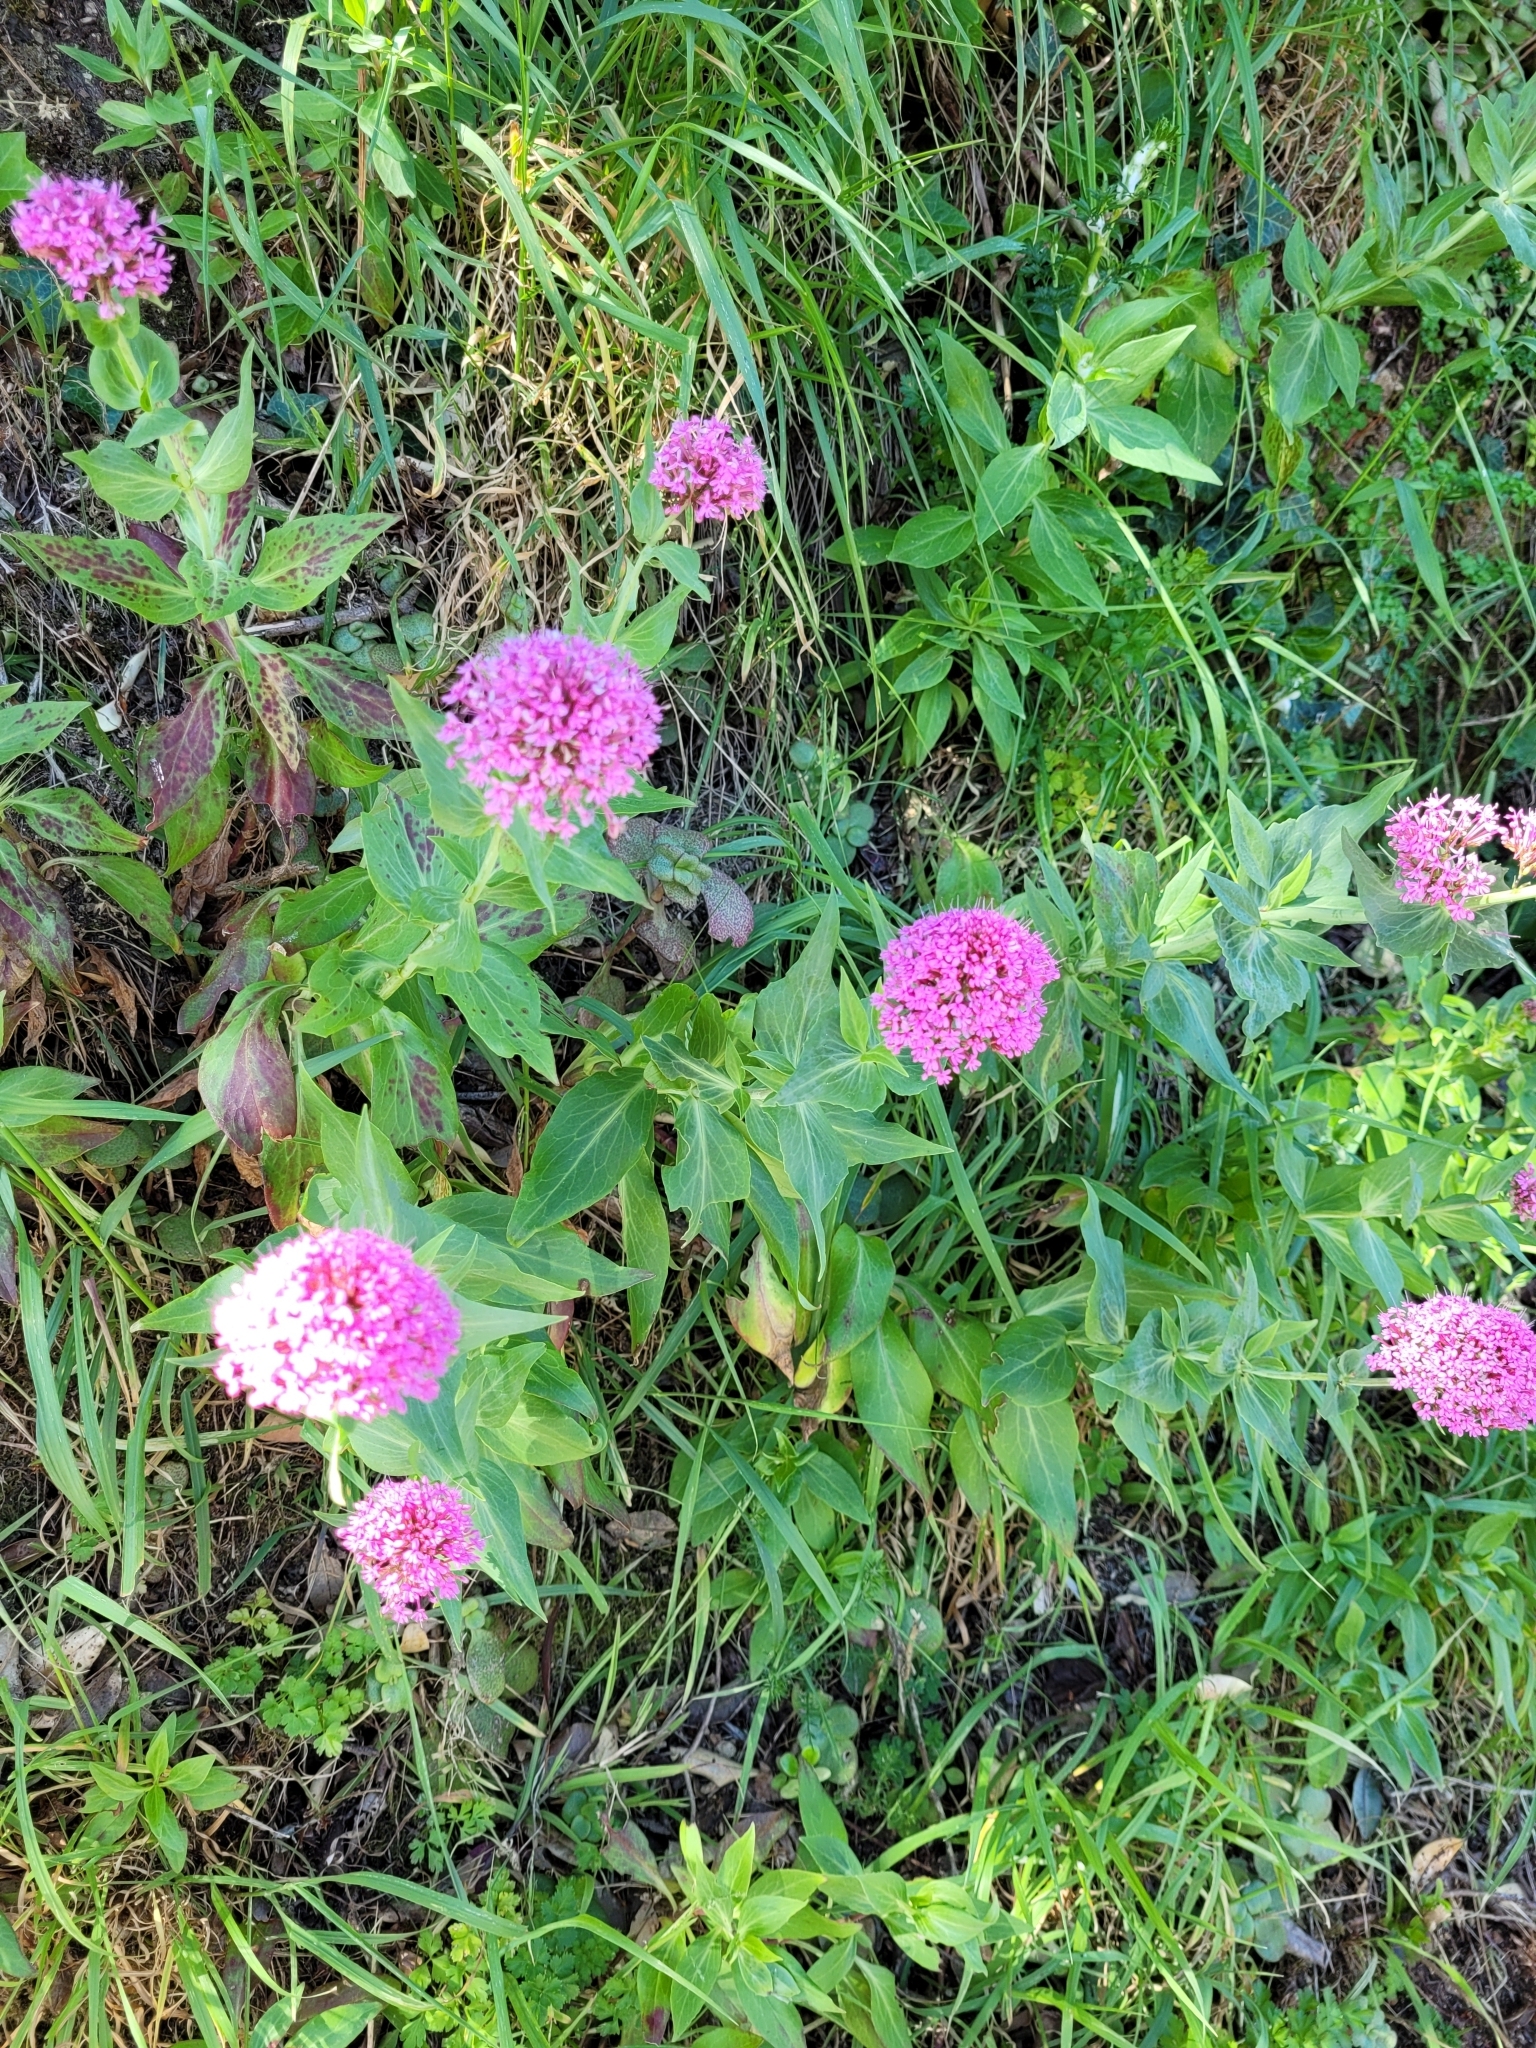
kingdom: Plantae
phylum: Tracheophyta
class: Magnoliopsida
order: Dipsacales
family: Caprifoliaceae
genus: Centranthus
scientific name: Centranthus ruber
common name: Red valerian
